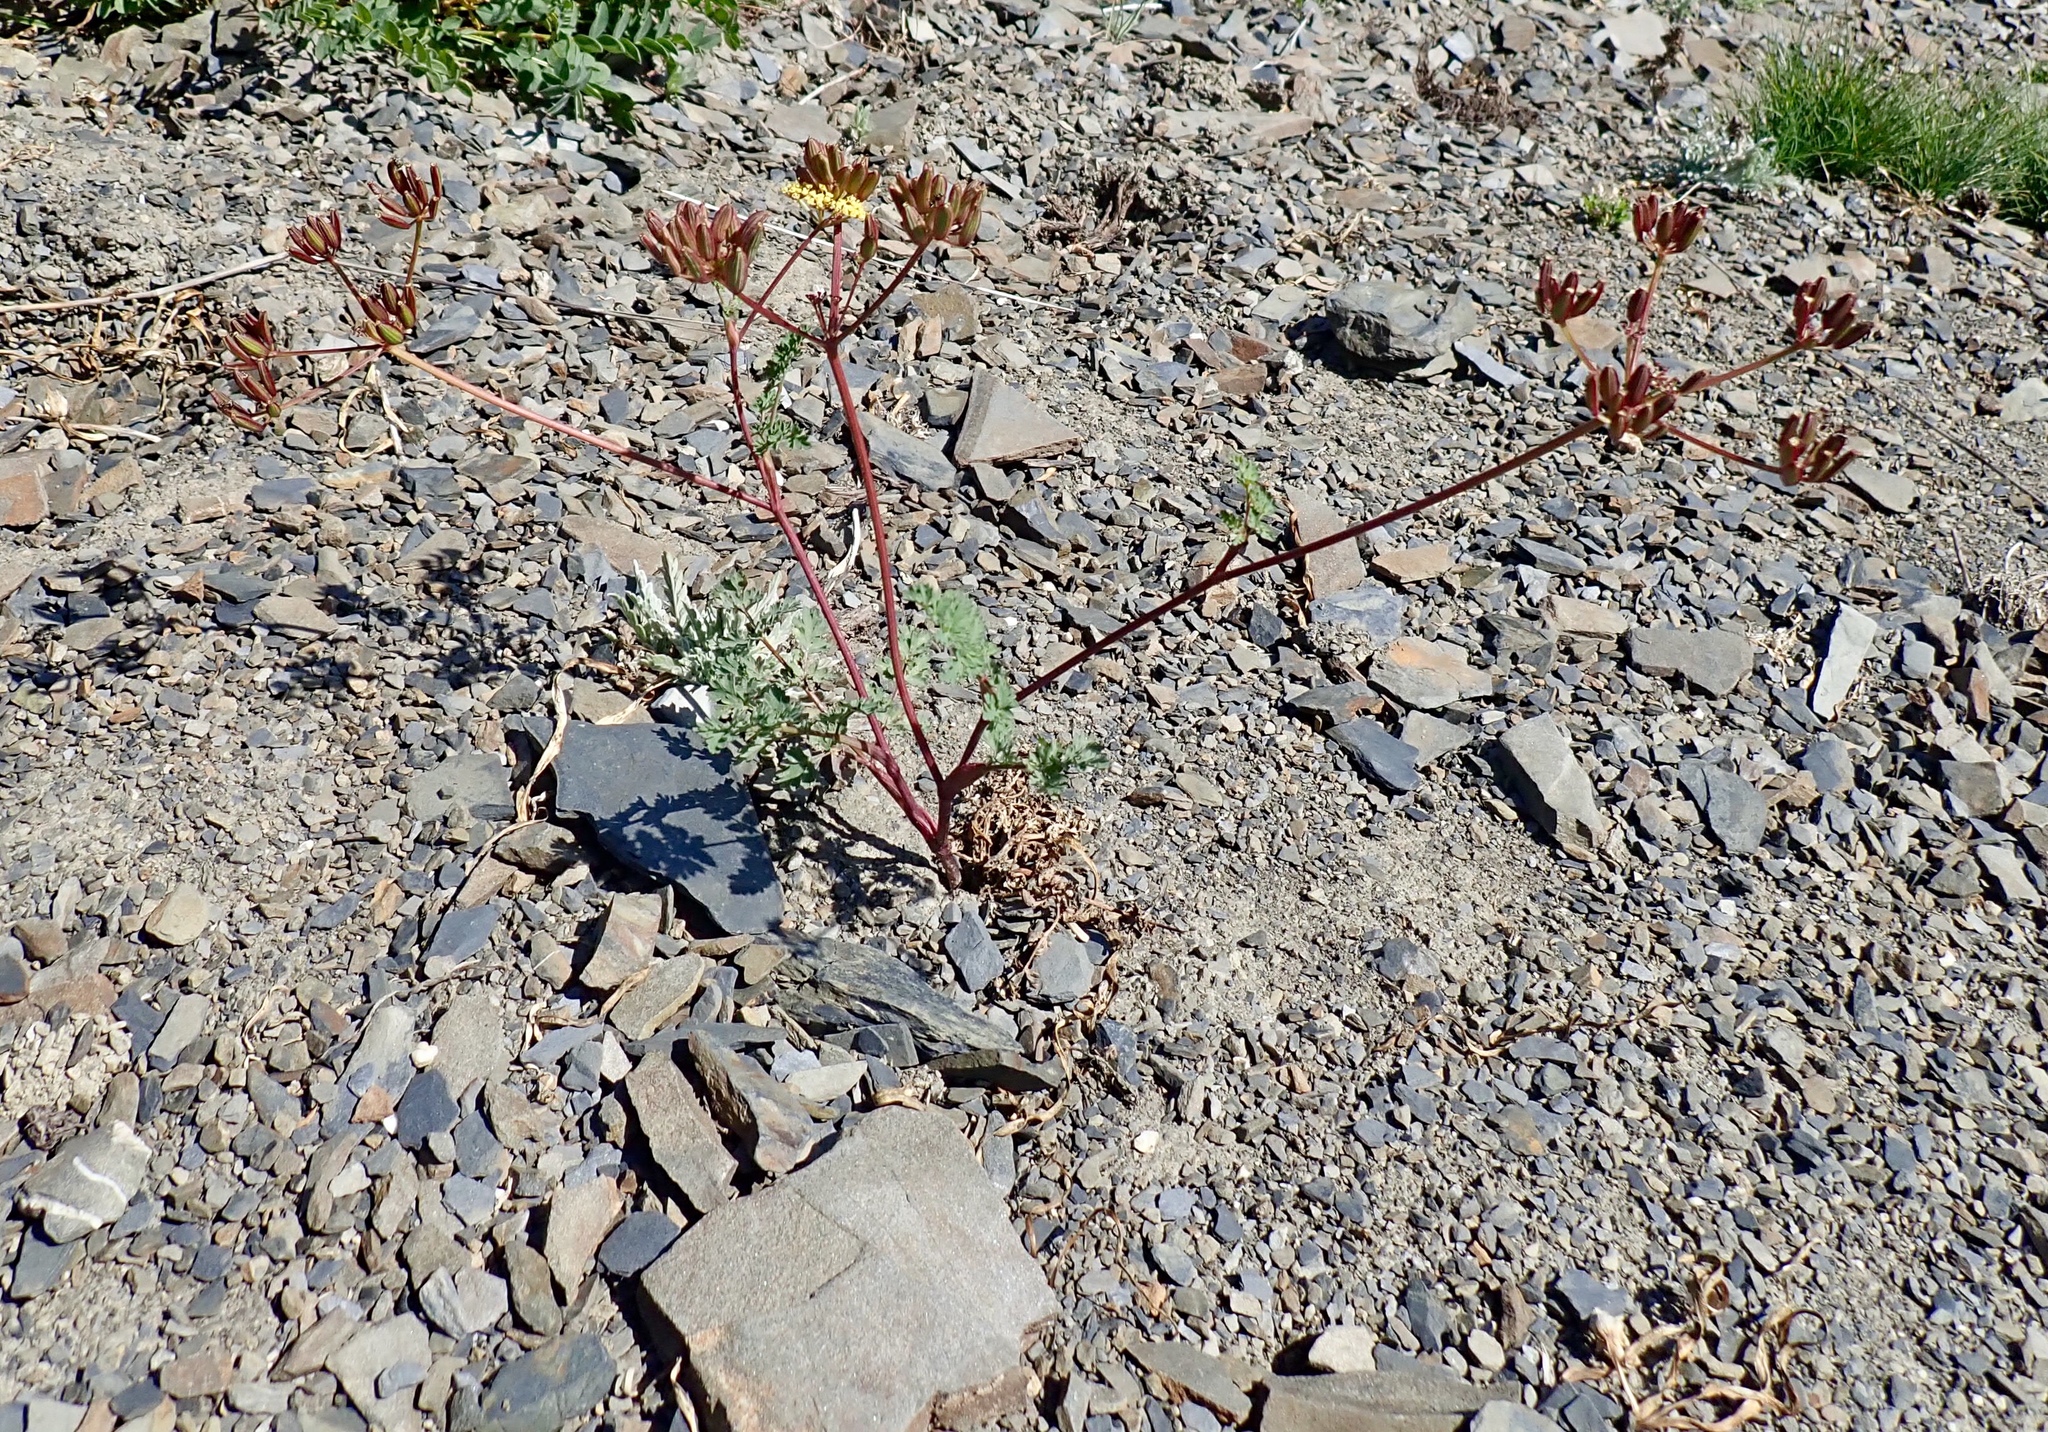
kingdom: Plantae
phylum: Tracheophyta
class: Magnoliopsida
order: Apiales
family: Apiaceae
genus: Lomatium
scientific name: Lomatium martindalei
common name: Cascade desert-parsley
